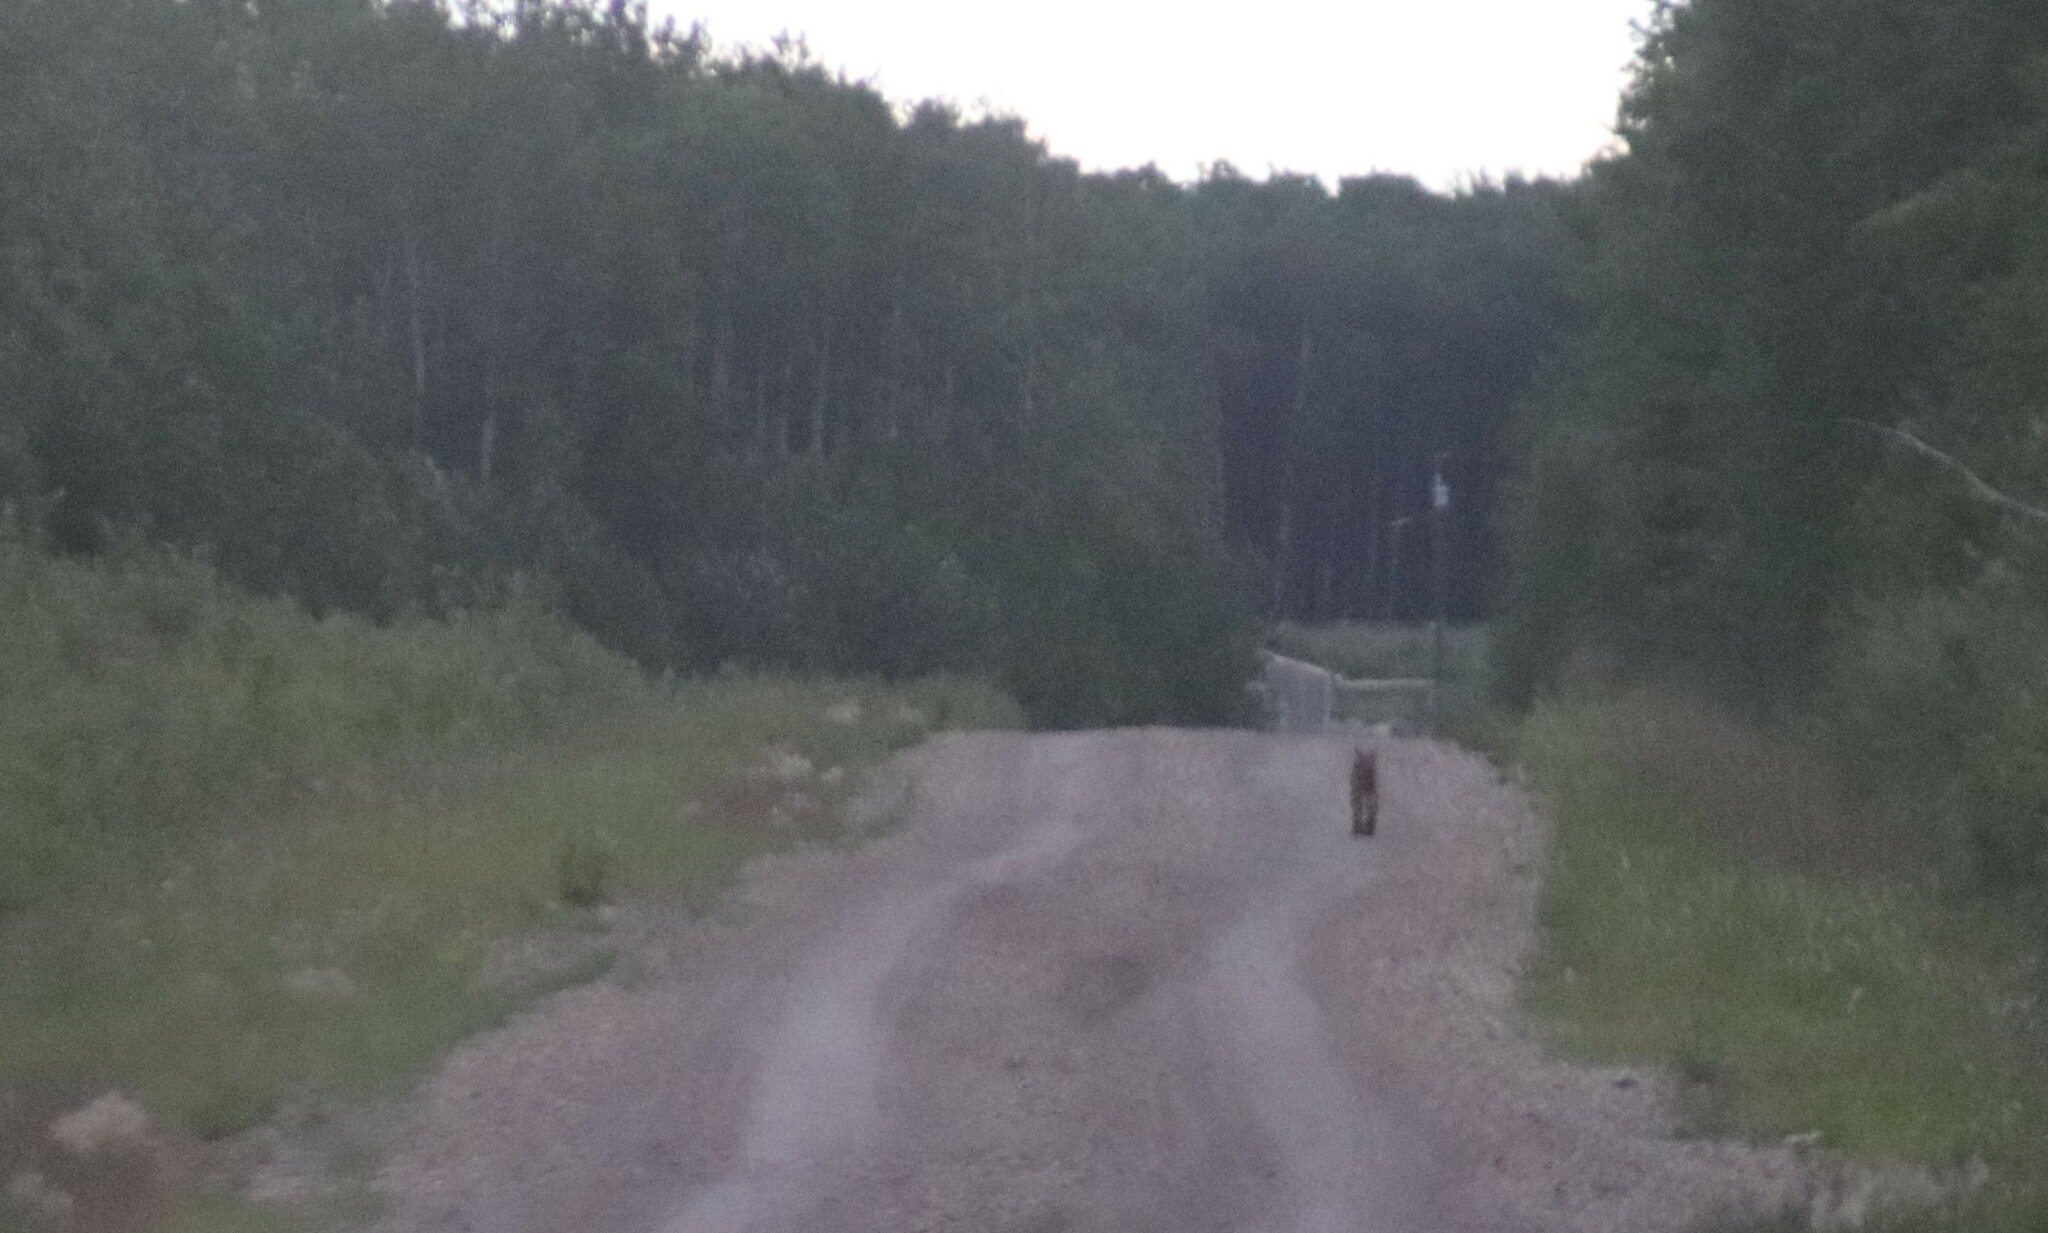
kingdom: Animalia
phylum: Chordata
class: Mammalia
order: Carnivora
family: Felidae
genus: Lynx
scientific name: Lynx canadensis
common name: Canadian lynx
